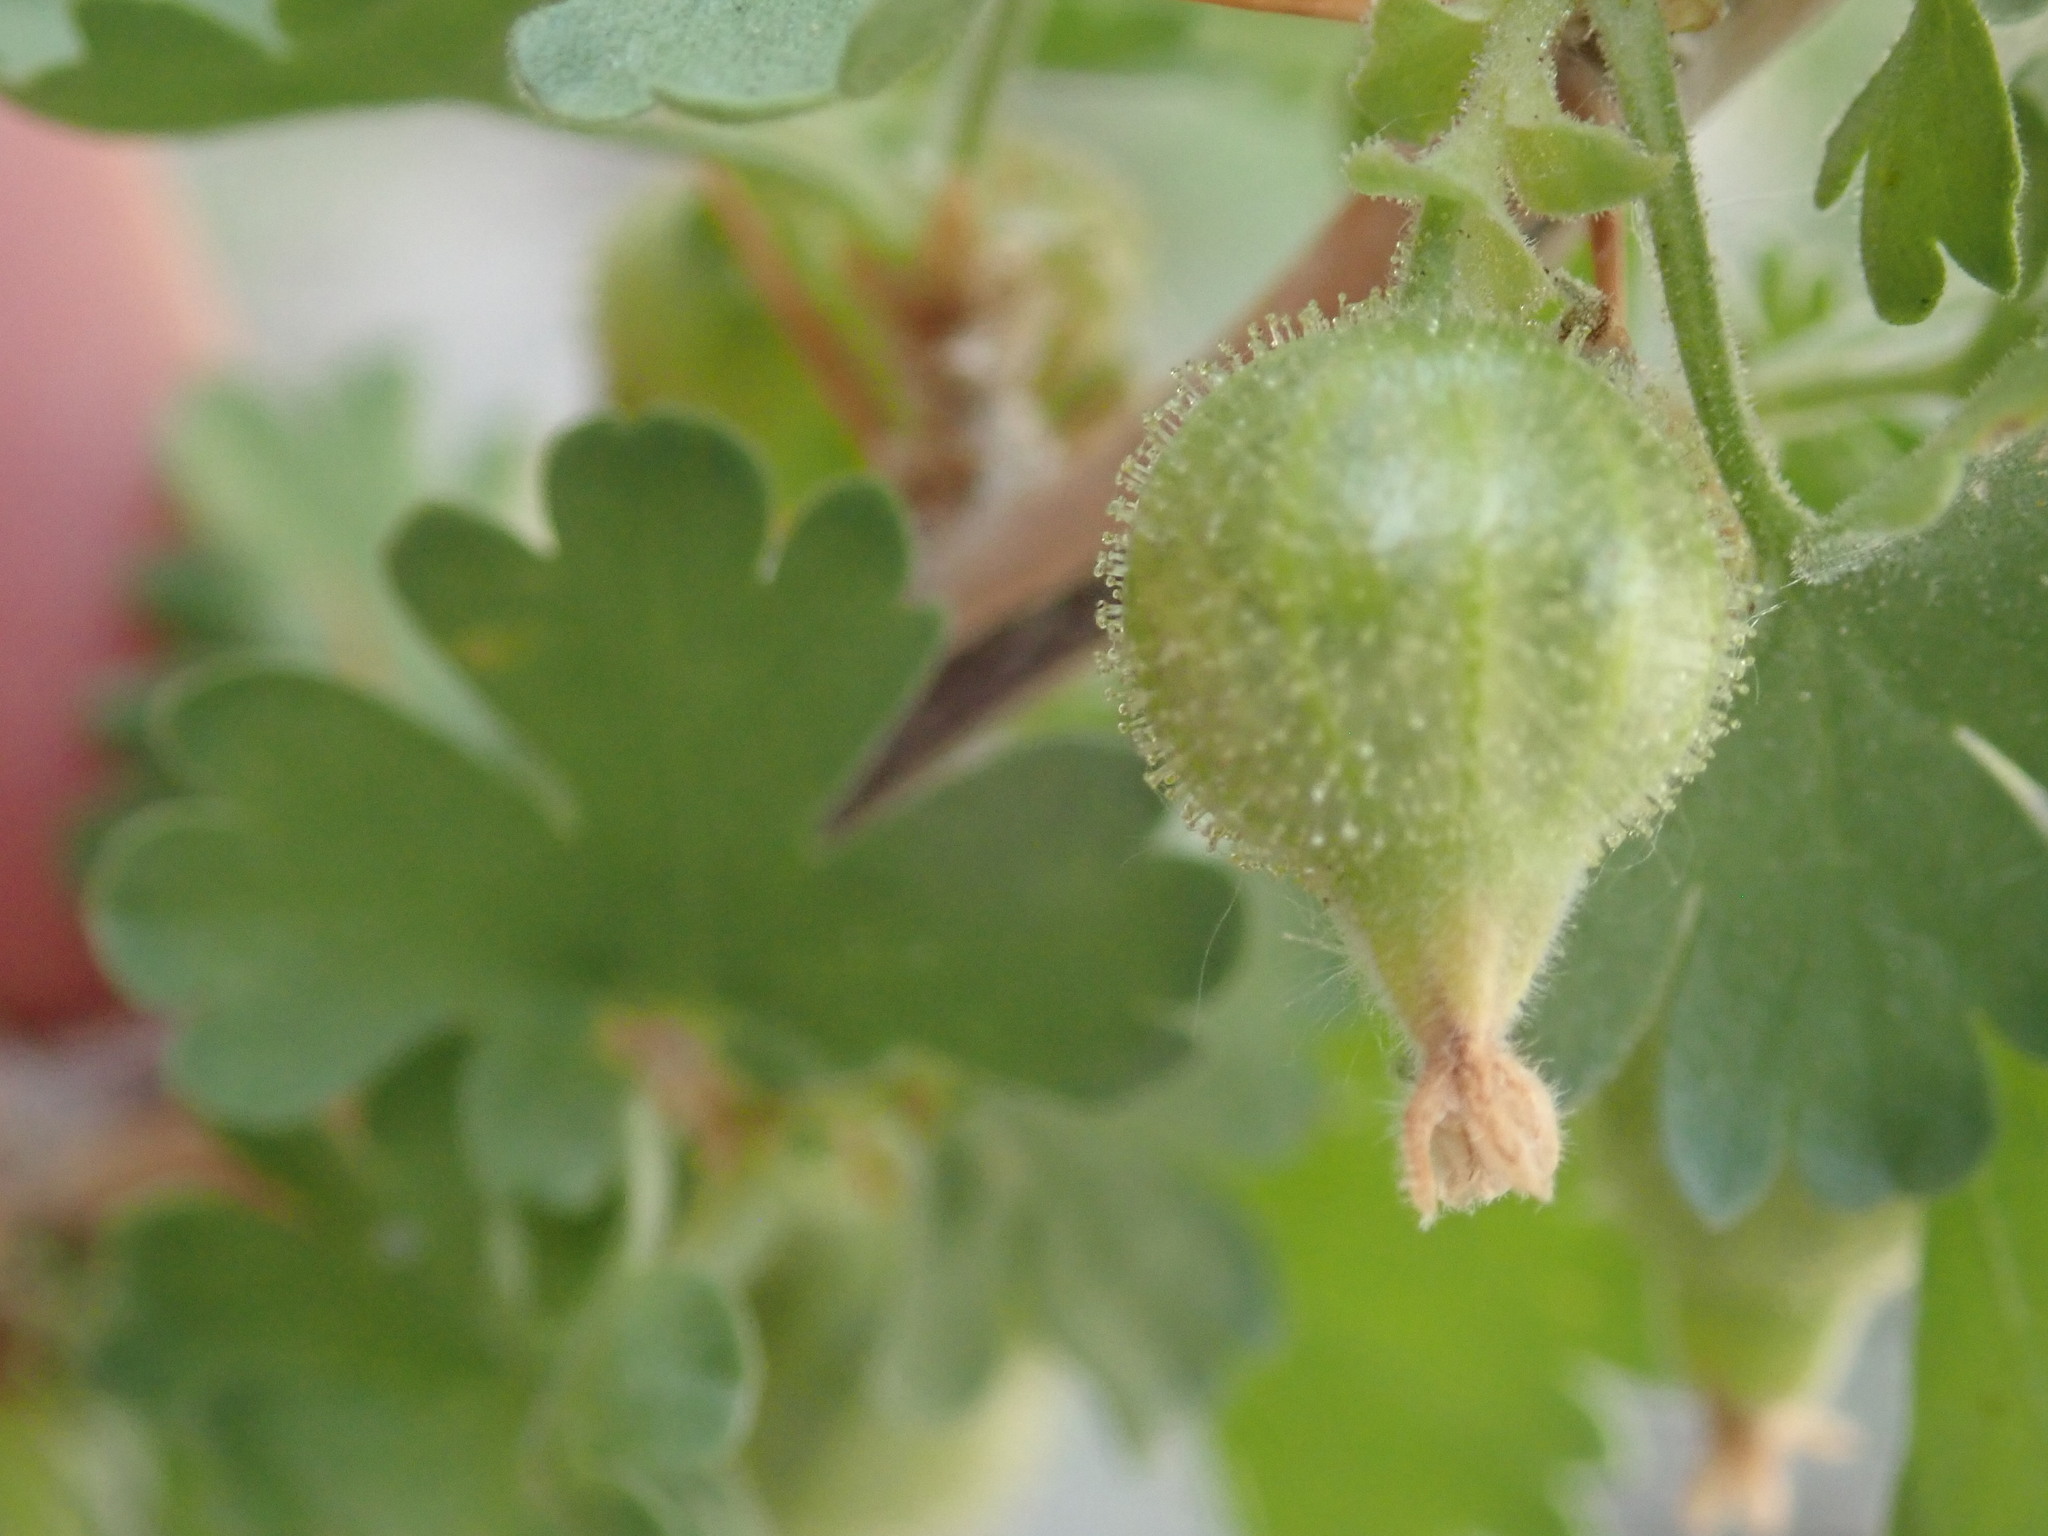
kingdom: Plantae
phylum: Tracheophyta
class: Magnoliopsida
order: Saxifragales
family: Grossulariaceae
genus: Ribes
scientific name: Ribes velutinum
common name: Desert gooseberry
